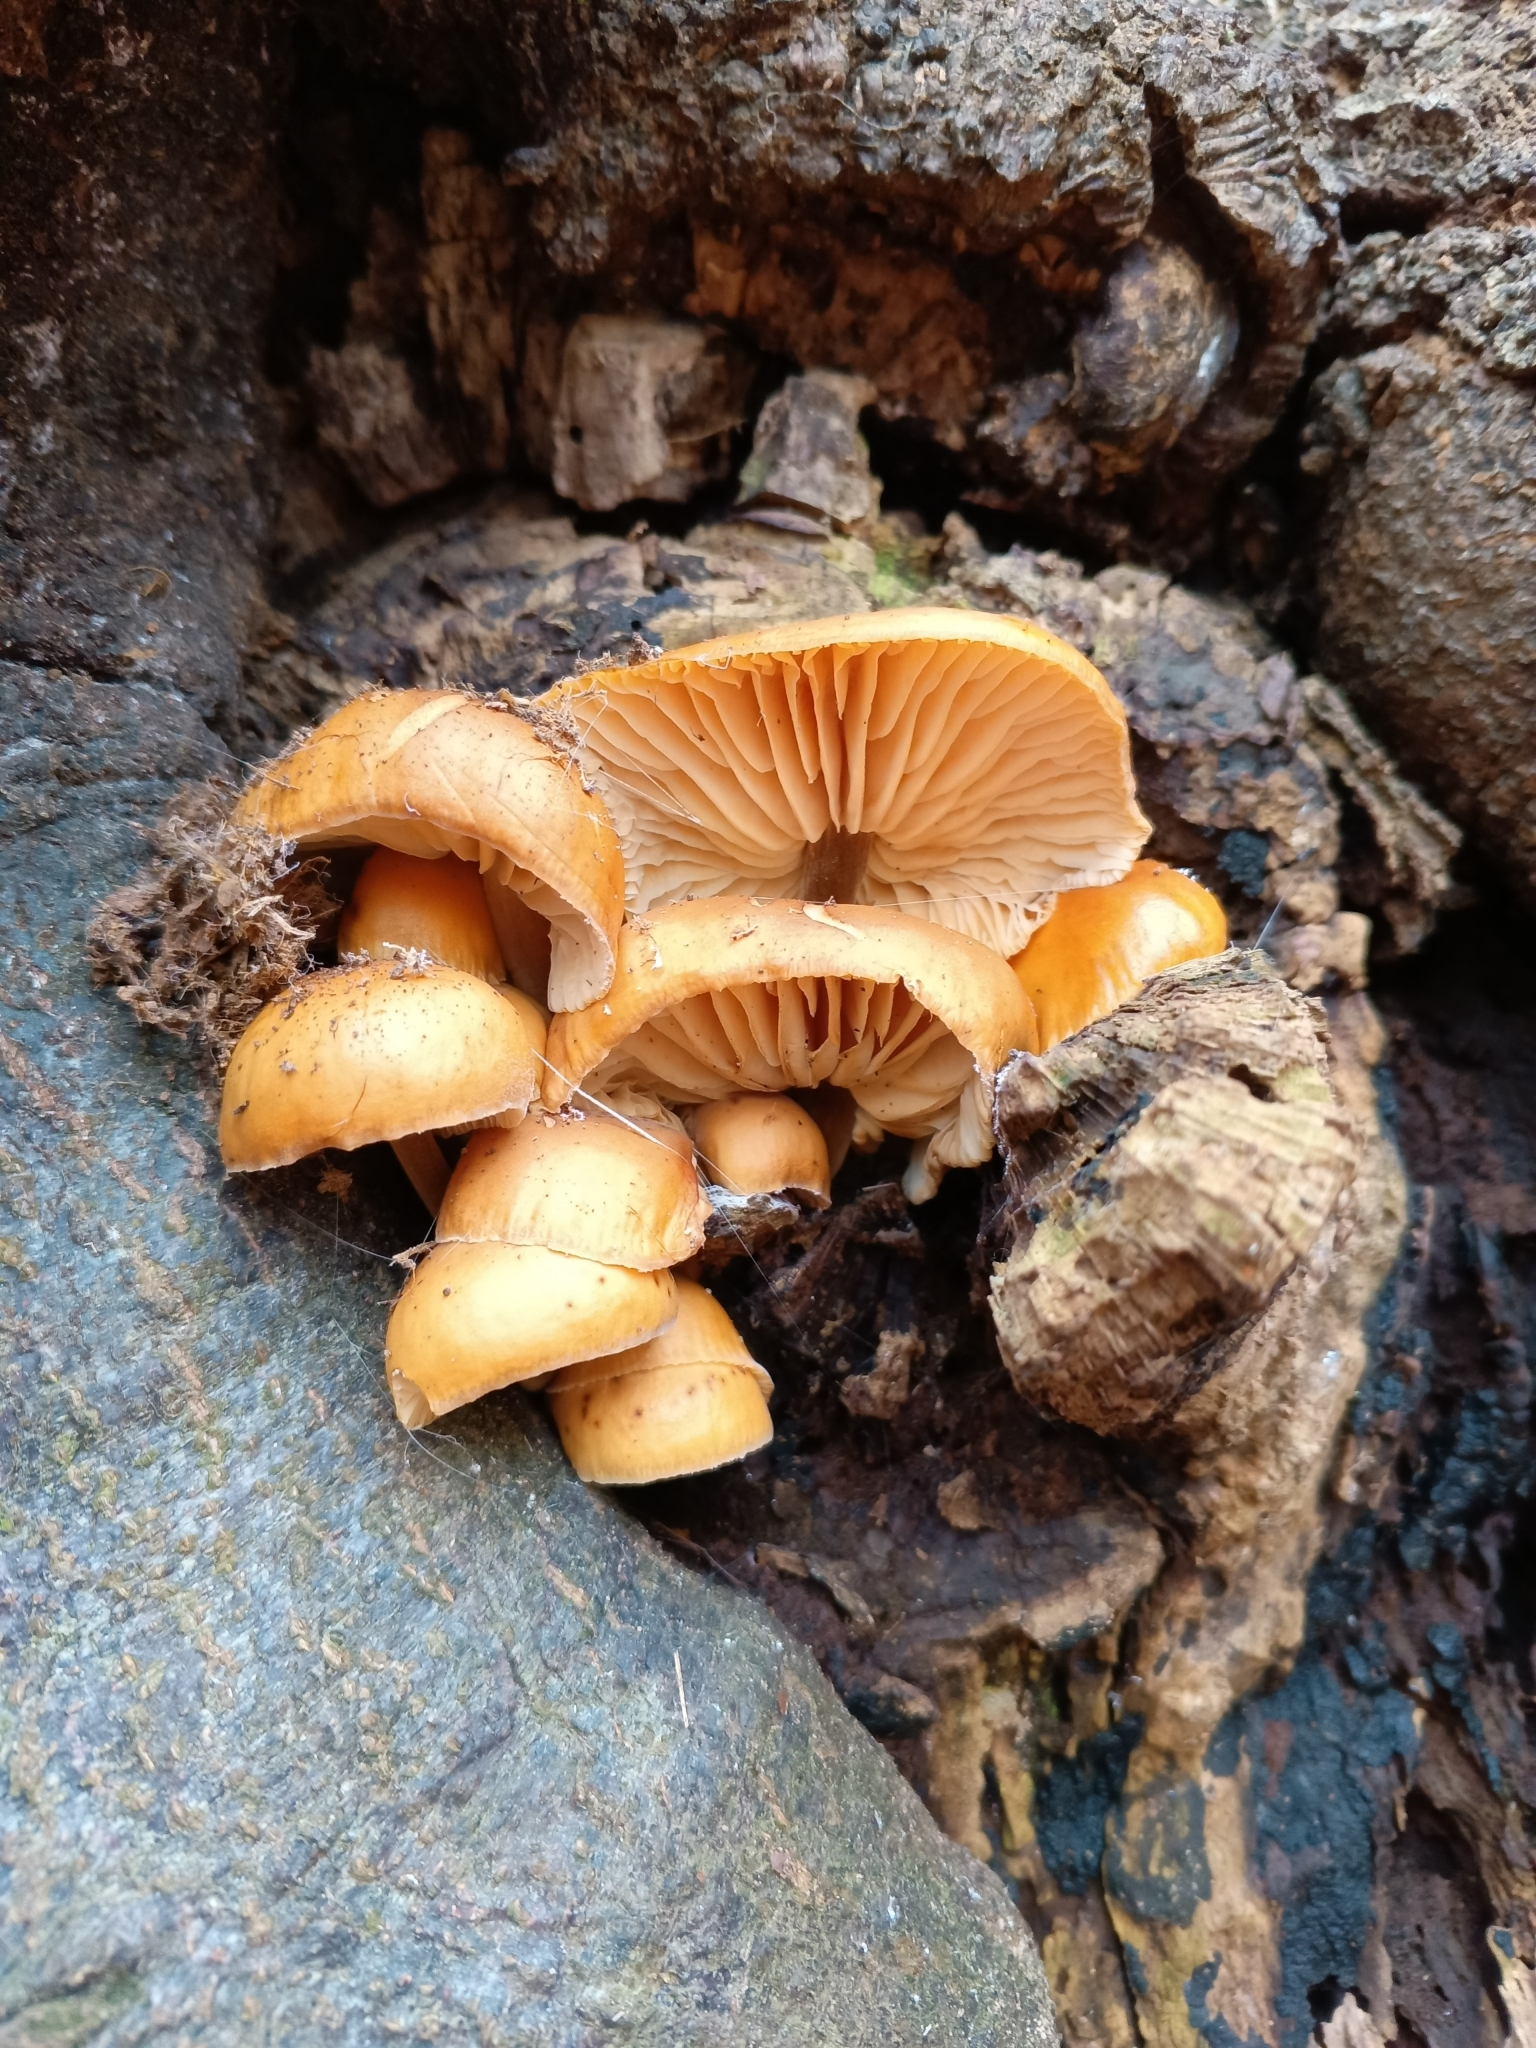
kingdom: Fungi
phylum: Basidiomycota
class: Agaricomycetes
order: Agaricales
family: Physalacriaceae
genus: Flammulina
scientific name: Flammulina
